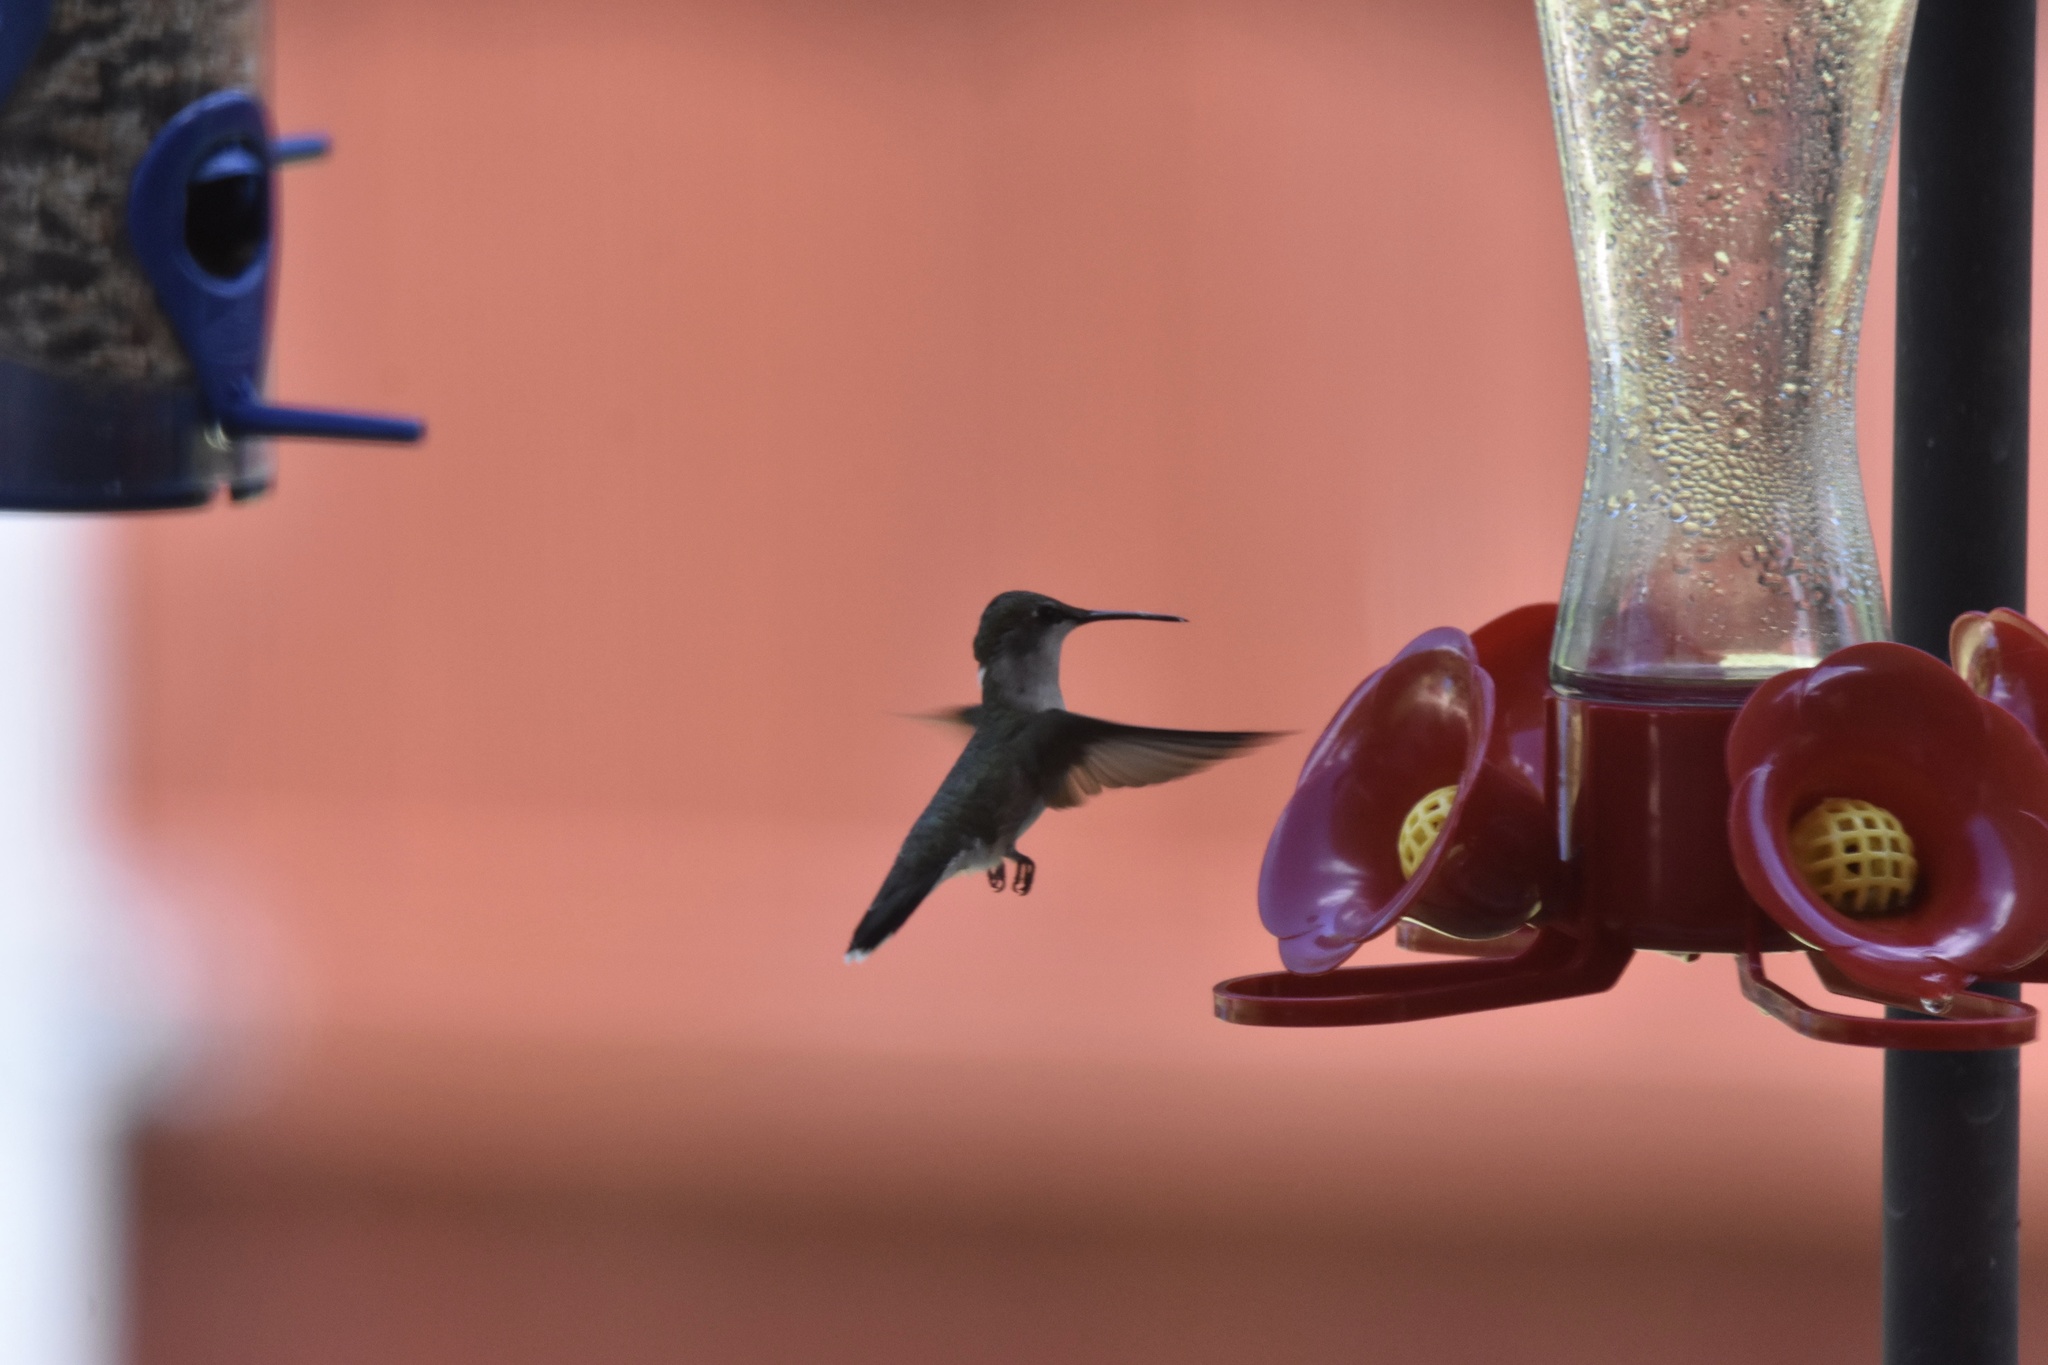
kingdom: Animalia
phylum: Chordata
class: Aves
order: Apodiformes
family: Trochilidae
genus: Archilochus
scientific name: Archilochus colubris
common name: Ruby-throated hummingbird
